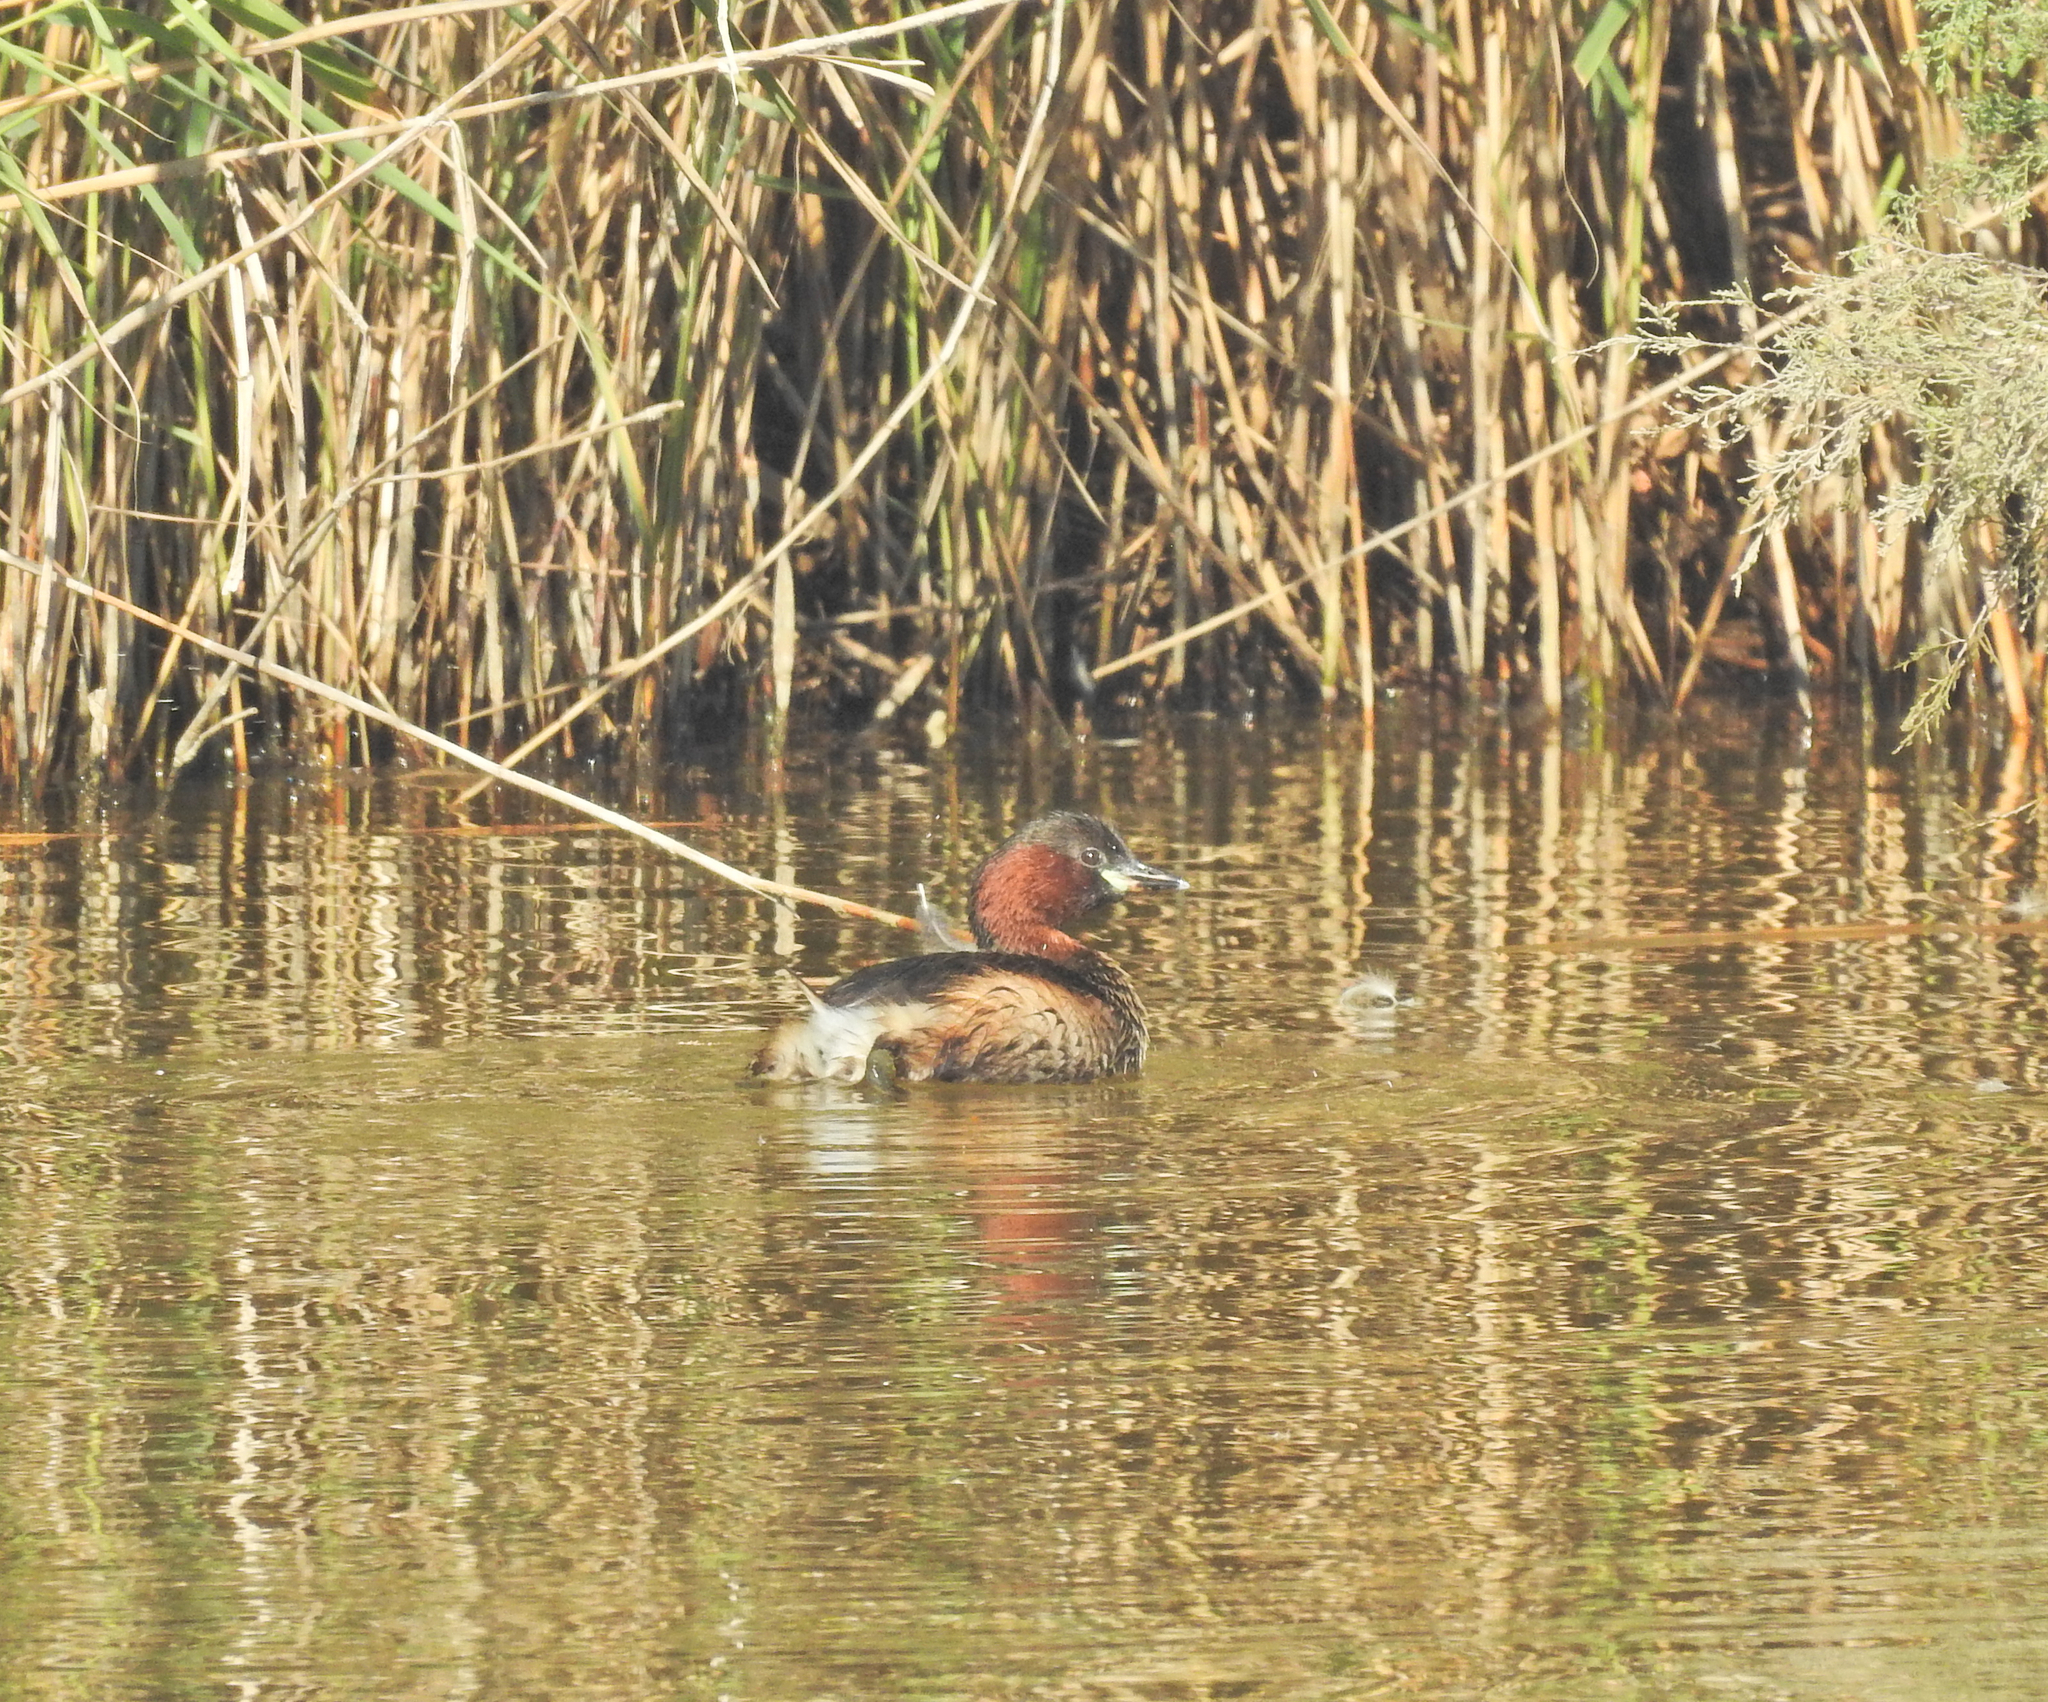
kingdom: Animalia
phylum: Chordata
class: Aves
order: Podicipediformes
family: Podicipedidae
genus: Tachybaptus
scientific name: Tachybaptus ruficollis
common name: Little grebe
